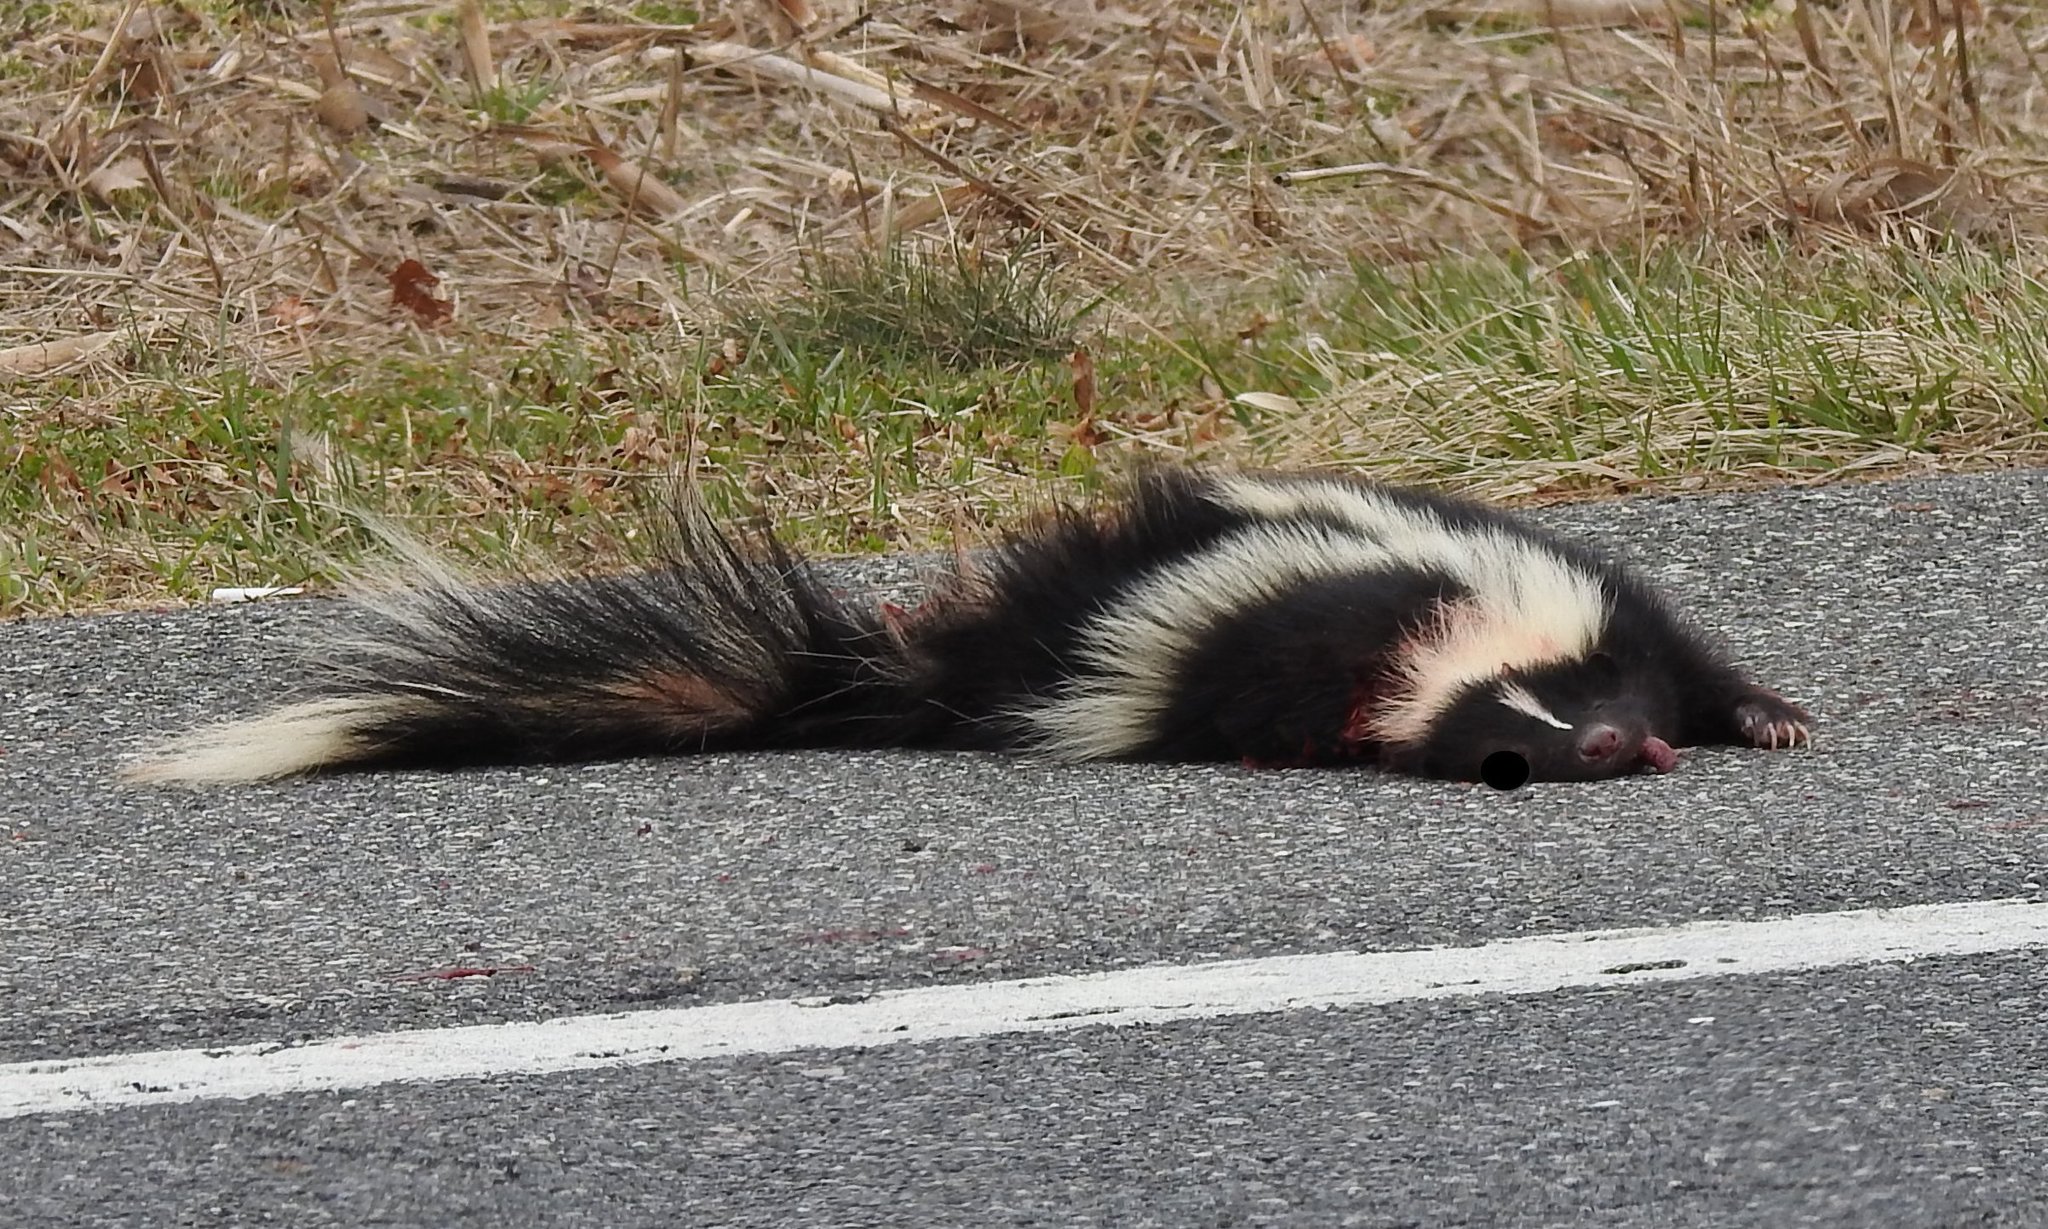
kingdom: Animalia
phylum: Chordata
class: Mammalia
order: Carnivora
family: Mephitidae
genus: Mephitis
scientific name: Mephitis mephitis
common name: Striped skunk
